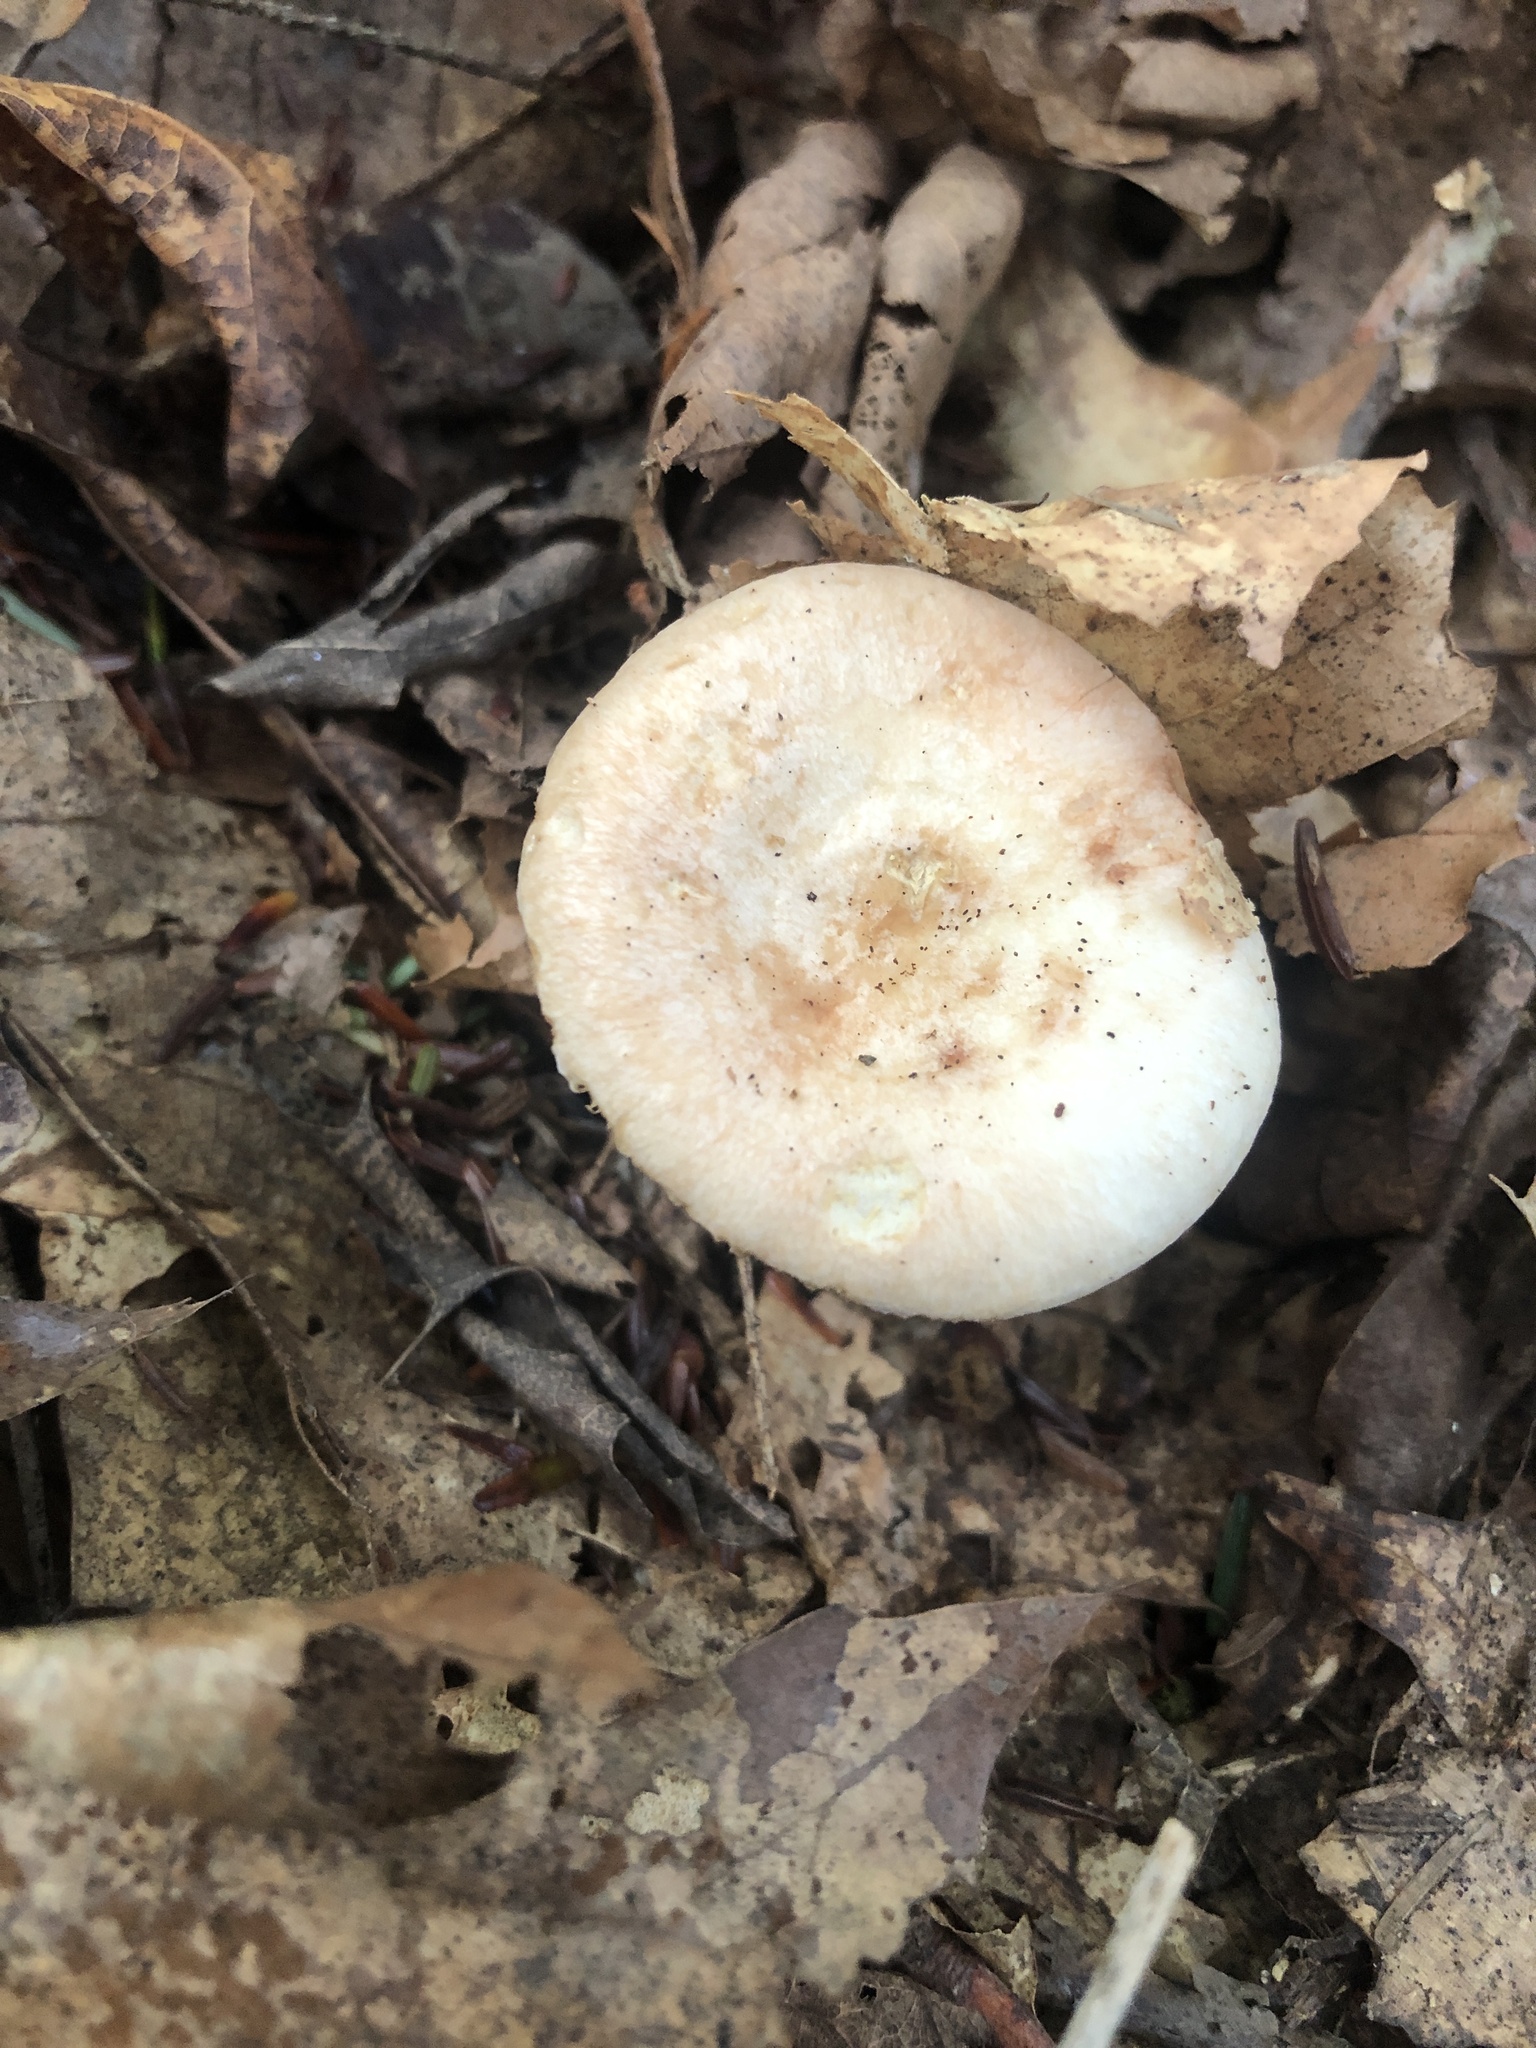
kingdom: Fungi
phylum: Basidiomycota
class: Agaricomycetes
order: Russulales
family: Russulaceae
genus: Lactarius
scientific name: Lactarius chrysorrheus
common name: Yellowdrop milkcap
